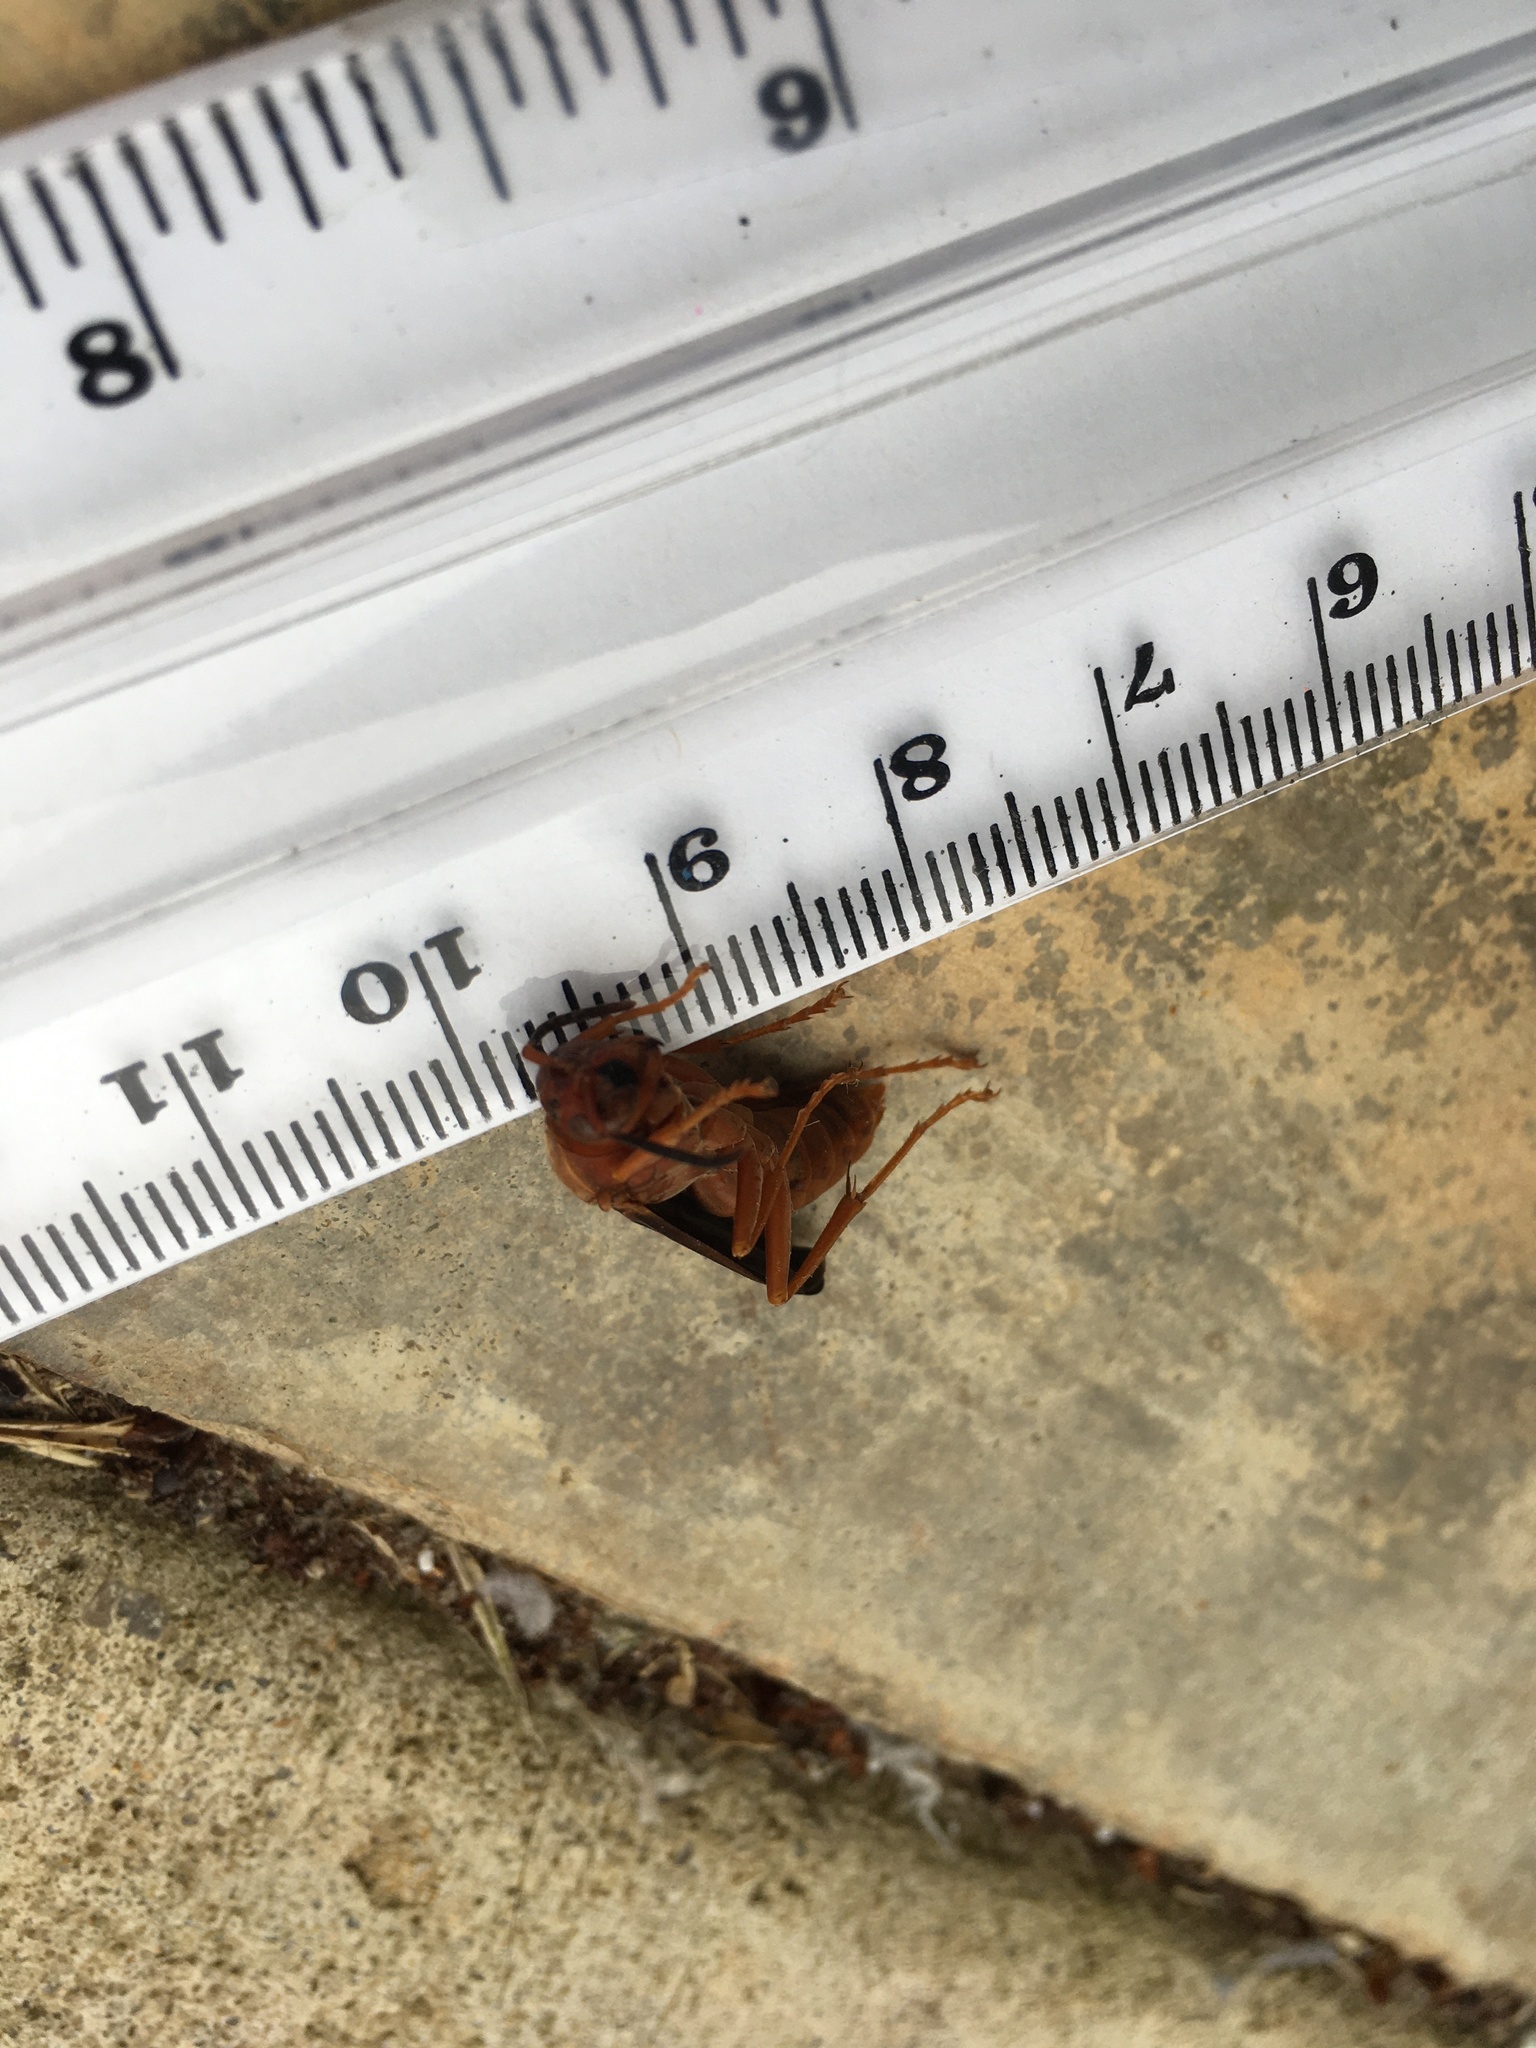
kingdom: Animalia
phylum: Arthropoda
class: Insecta
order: Hymenoptera
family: Vespidae
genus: Fuscopolistes
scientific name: Fuscopolistes
